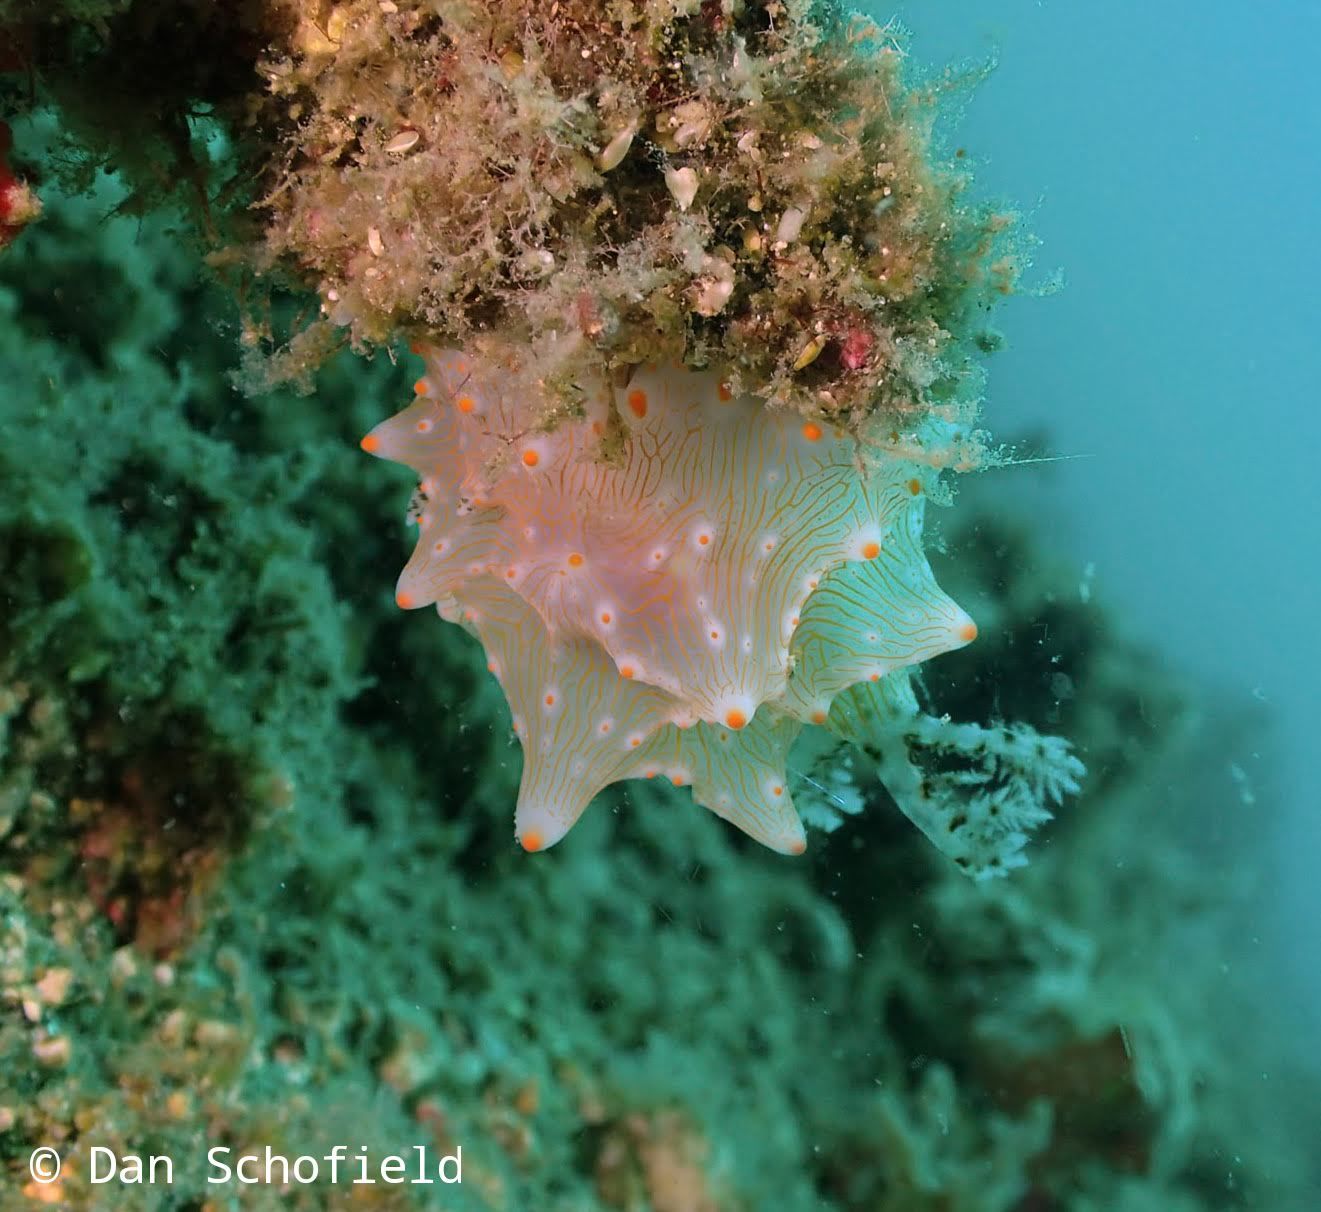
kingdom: Animalia
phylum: Mollusca
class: Gastropoda
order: Nudibranchia
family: Discodorididae
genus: Halgerda
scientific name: Halgerda batangas
